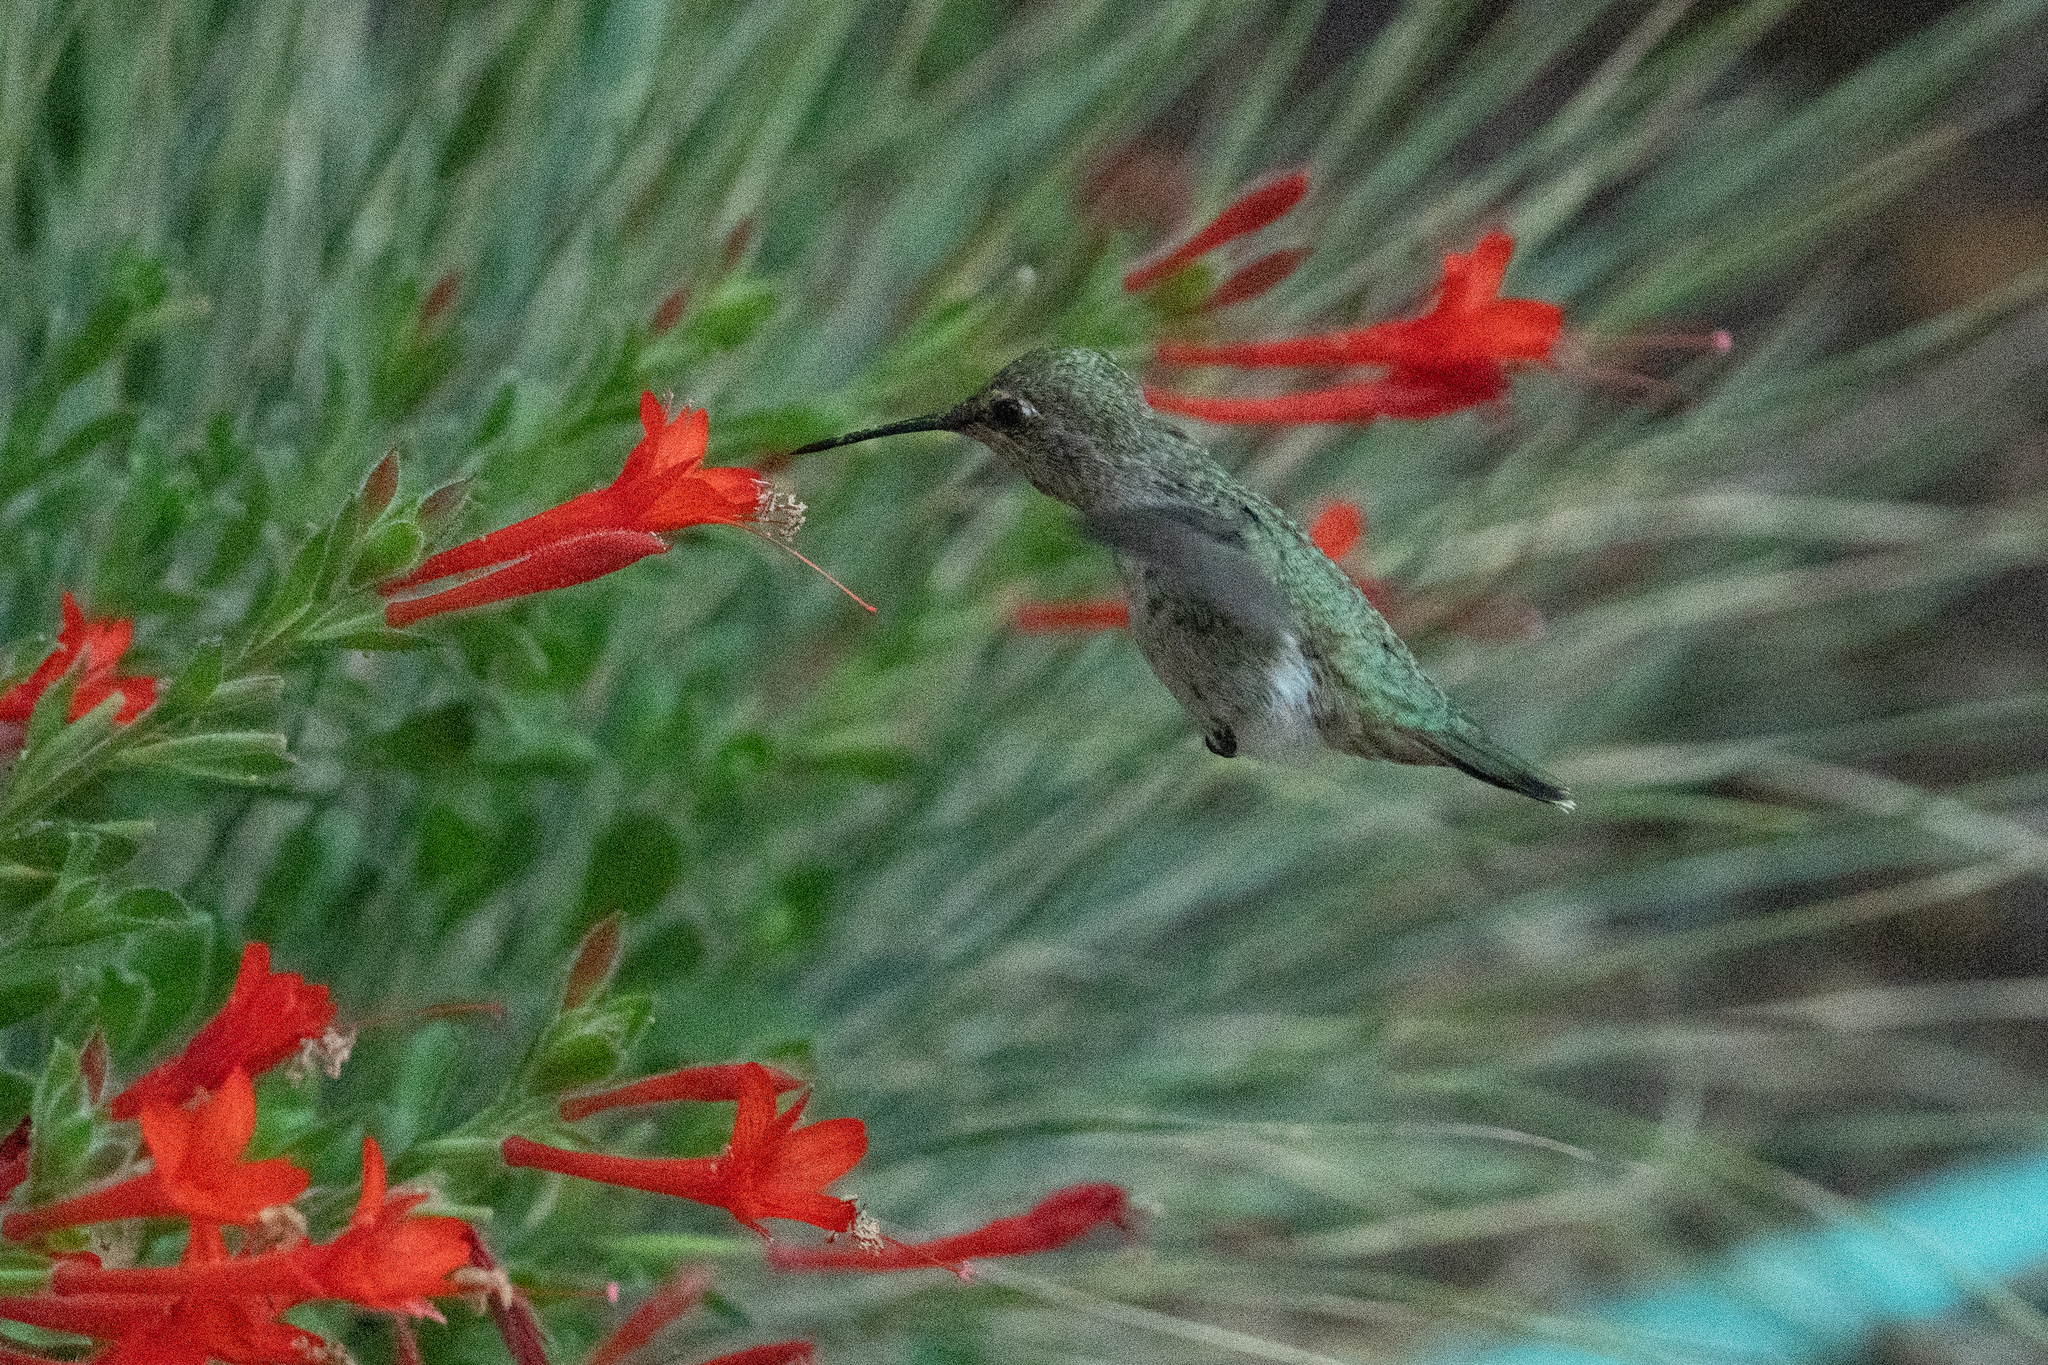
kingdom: Animalia
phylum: Chordata
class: Aves
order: Apodiformes
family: Trochilidae
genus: Calypte
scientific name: Calypte anna
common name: Anna's hummingbird
